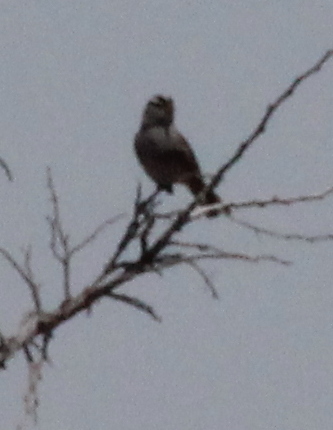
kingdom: Animalia
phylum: Chordata
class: Aves
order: Passeriformes
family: Passerellidae
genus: Zonotrichia
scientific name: Zonotrichia leucophrys
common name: White-crowned sparrow
